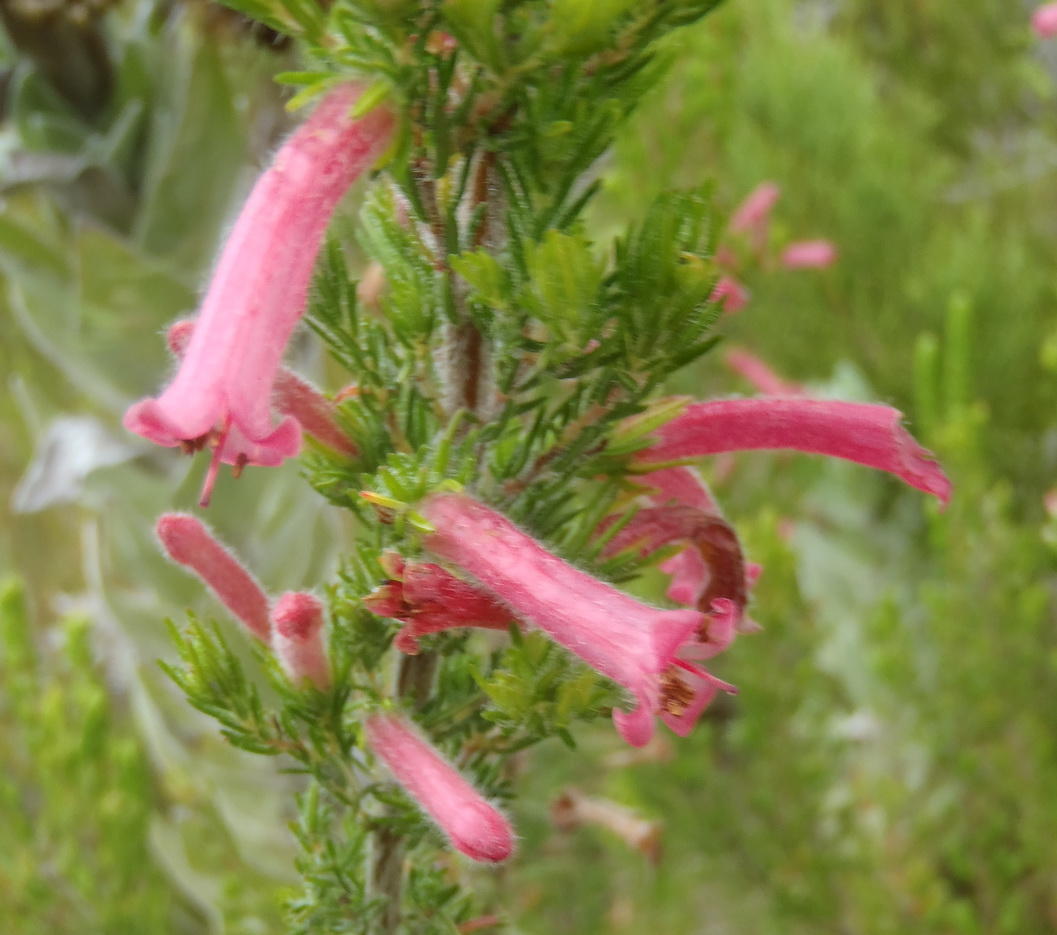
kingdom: Plantae
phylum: Tracheophyta
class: Magnoliopsida
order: Ericales
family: Ericaceae
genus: Erica
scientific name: Erica curviflora
